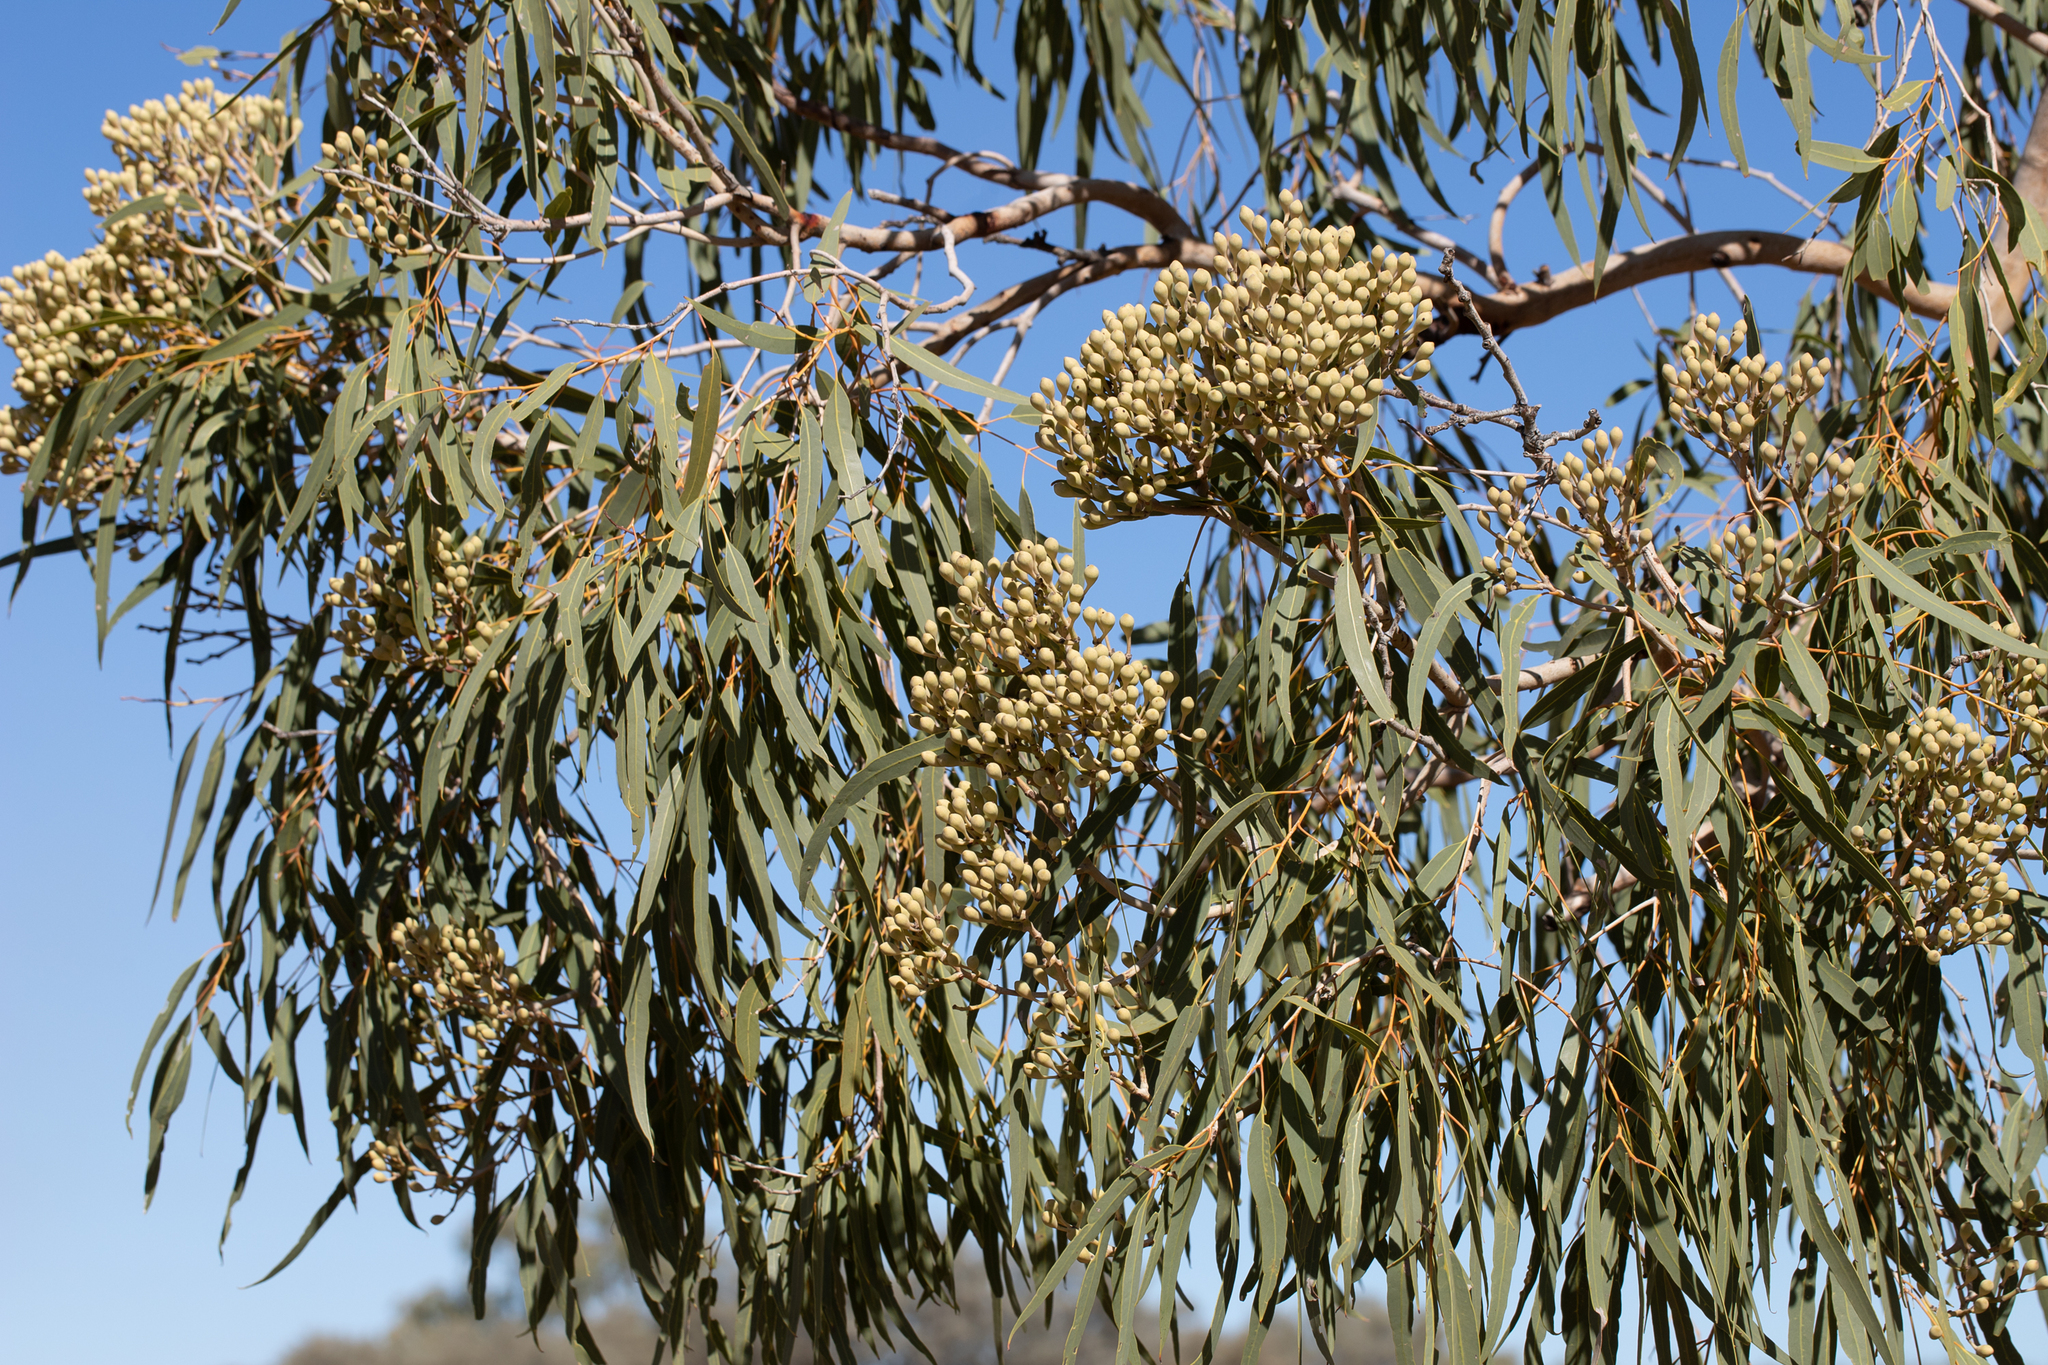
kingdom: Plantae
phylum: Tracheophyta
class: Magnoliopsida
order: Myrtales
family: Myrtaceae
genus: Corymbia
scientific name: Corymbia terminalis
